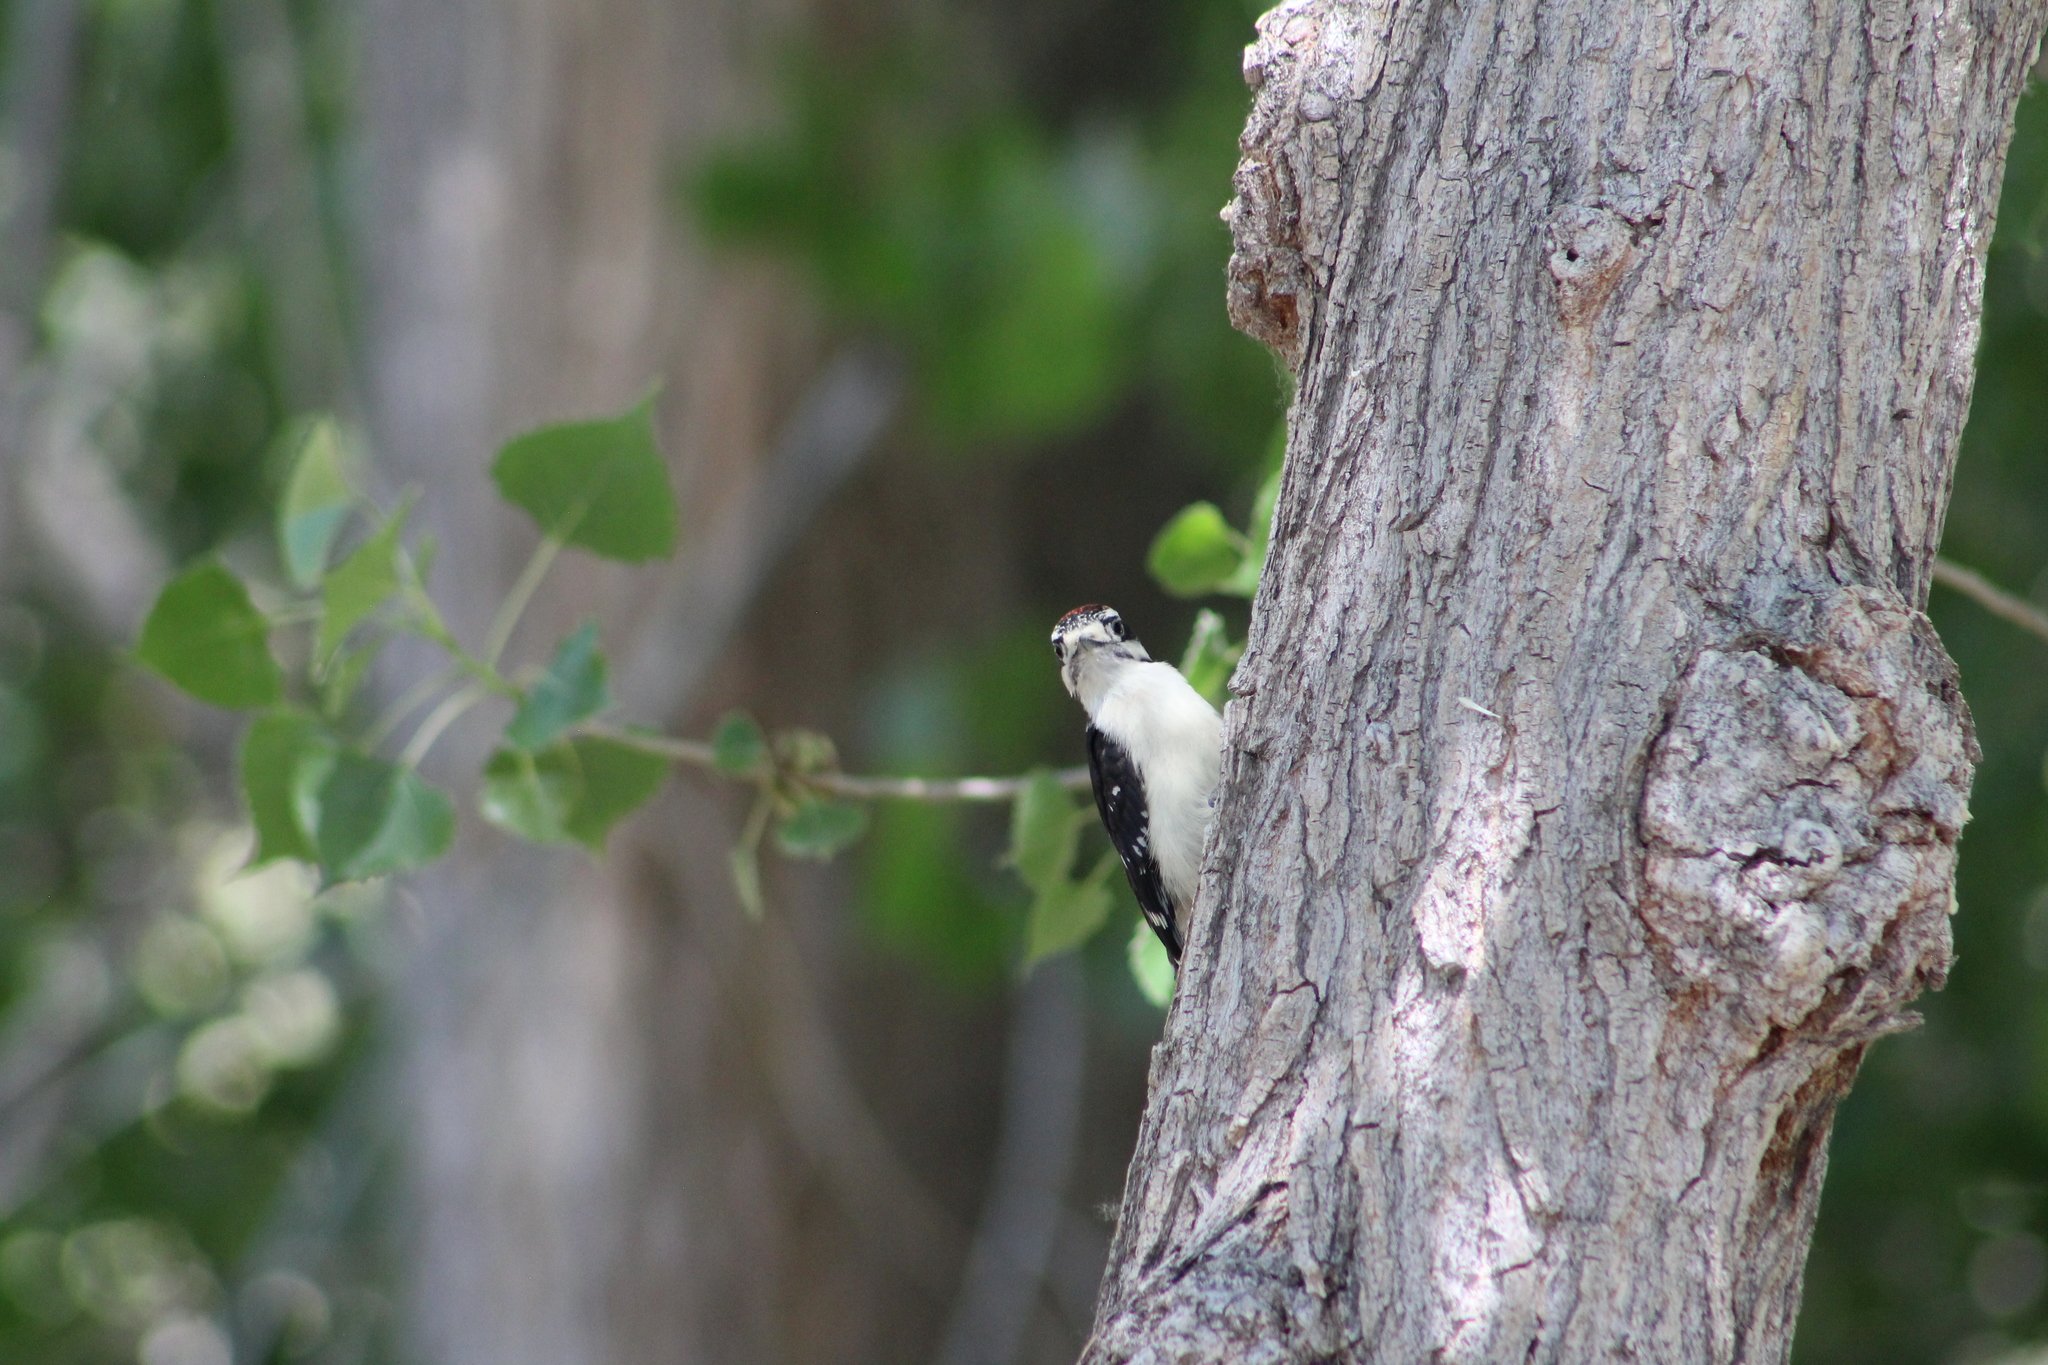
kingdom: Animalia
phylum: Chordata
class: Aves
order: Piciformes
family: Picidae
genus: Dryobates
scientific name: Dryobates pubescens
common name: Downy woodpecker
